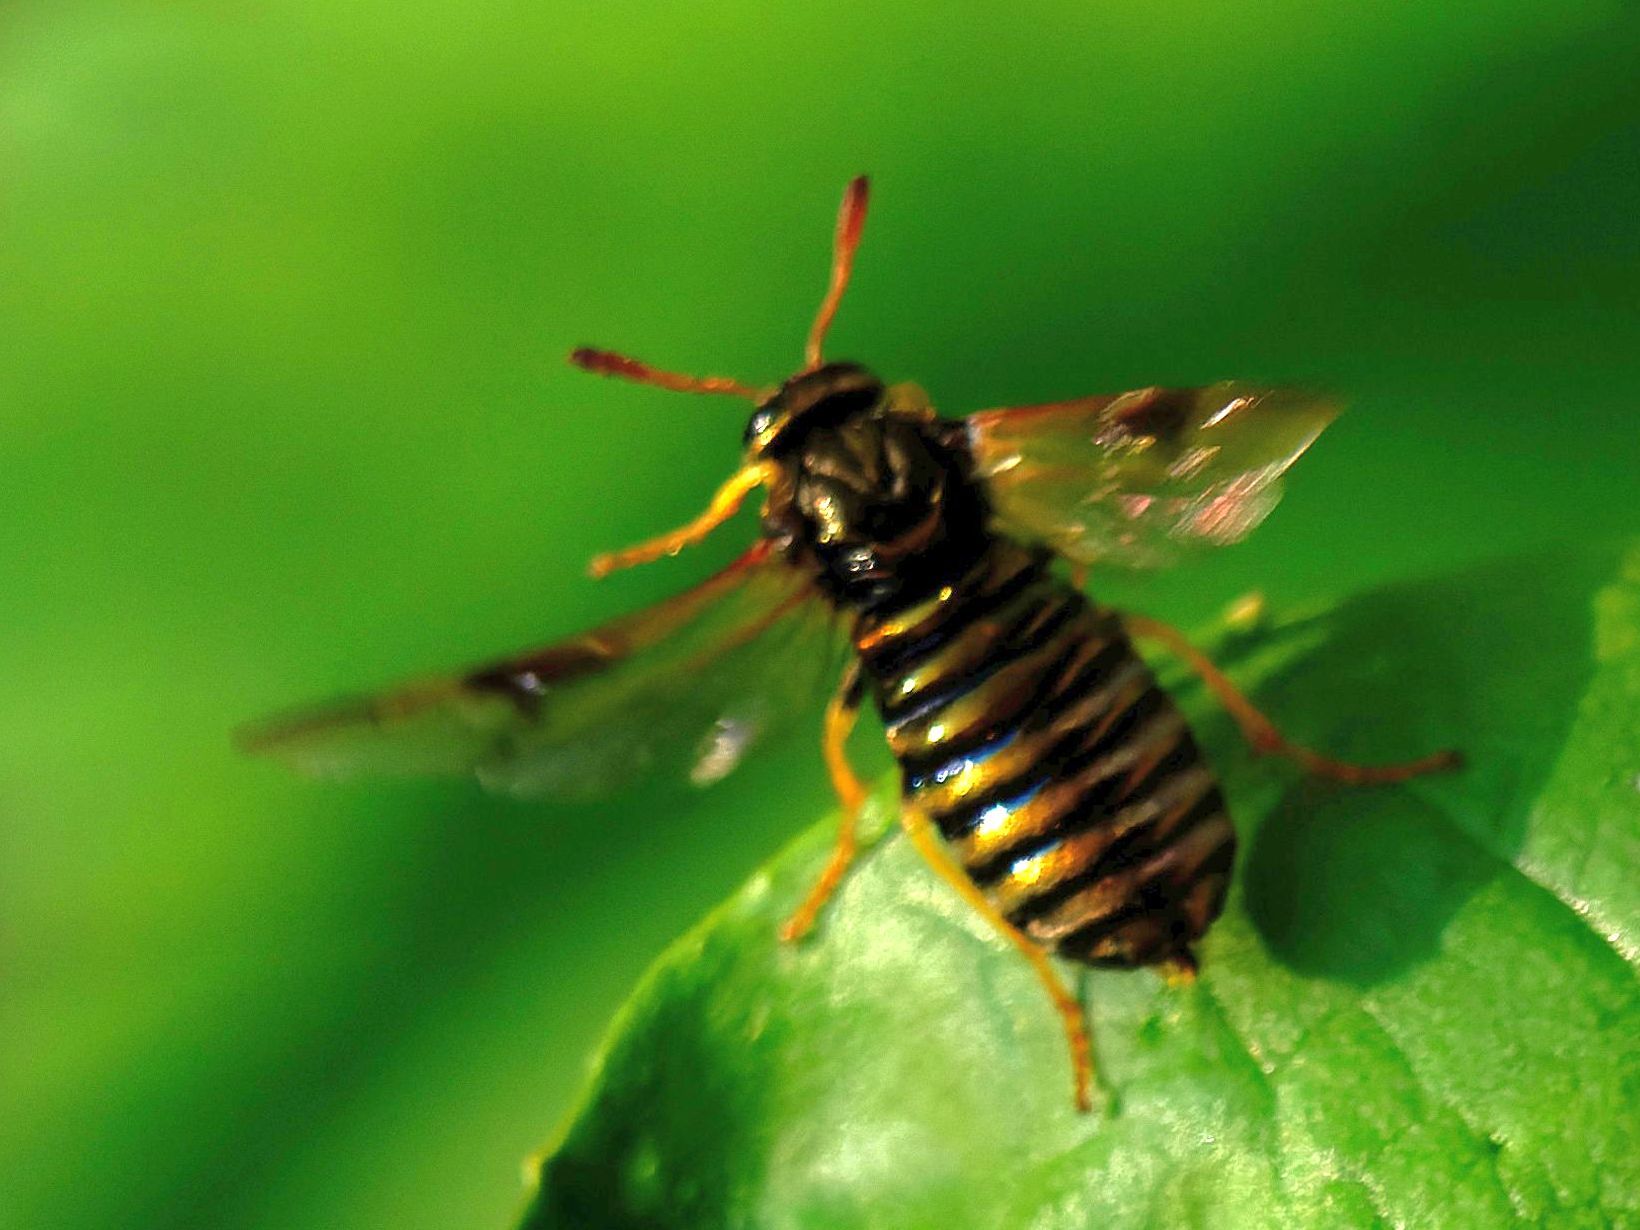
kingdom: Animalia
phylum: Arthropoda
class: Insecta
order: Hymenoptera
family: Cimbicidae
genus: Abia
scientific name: Abia nitens
